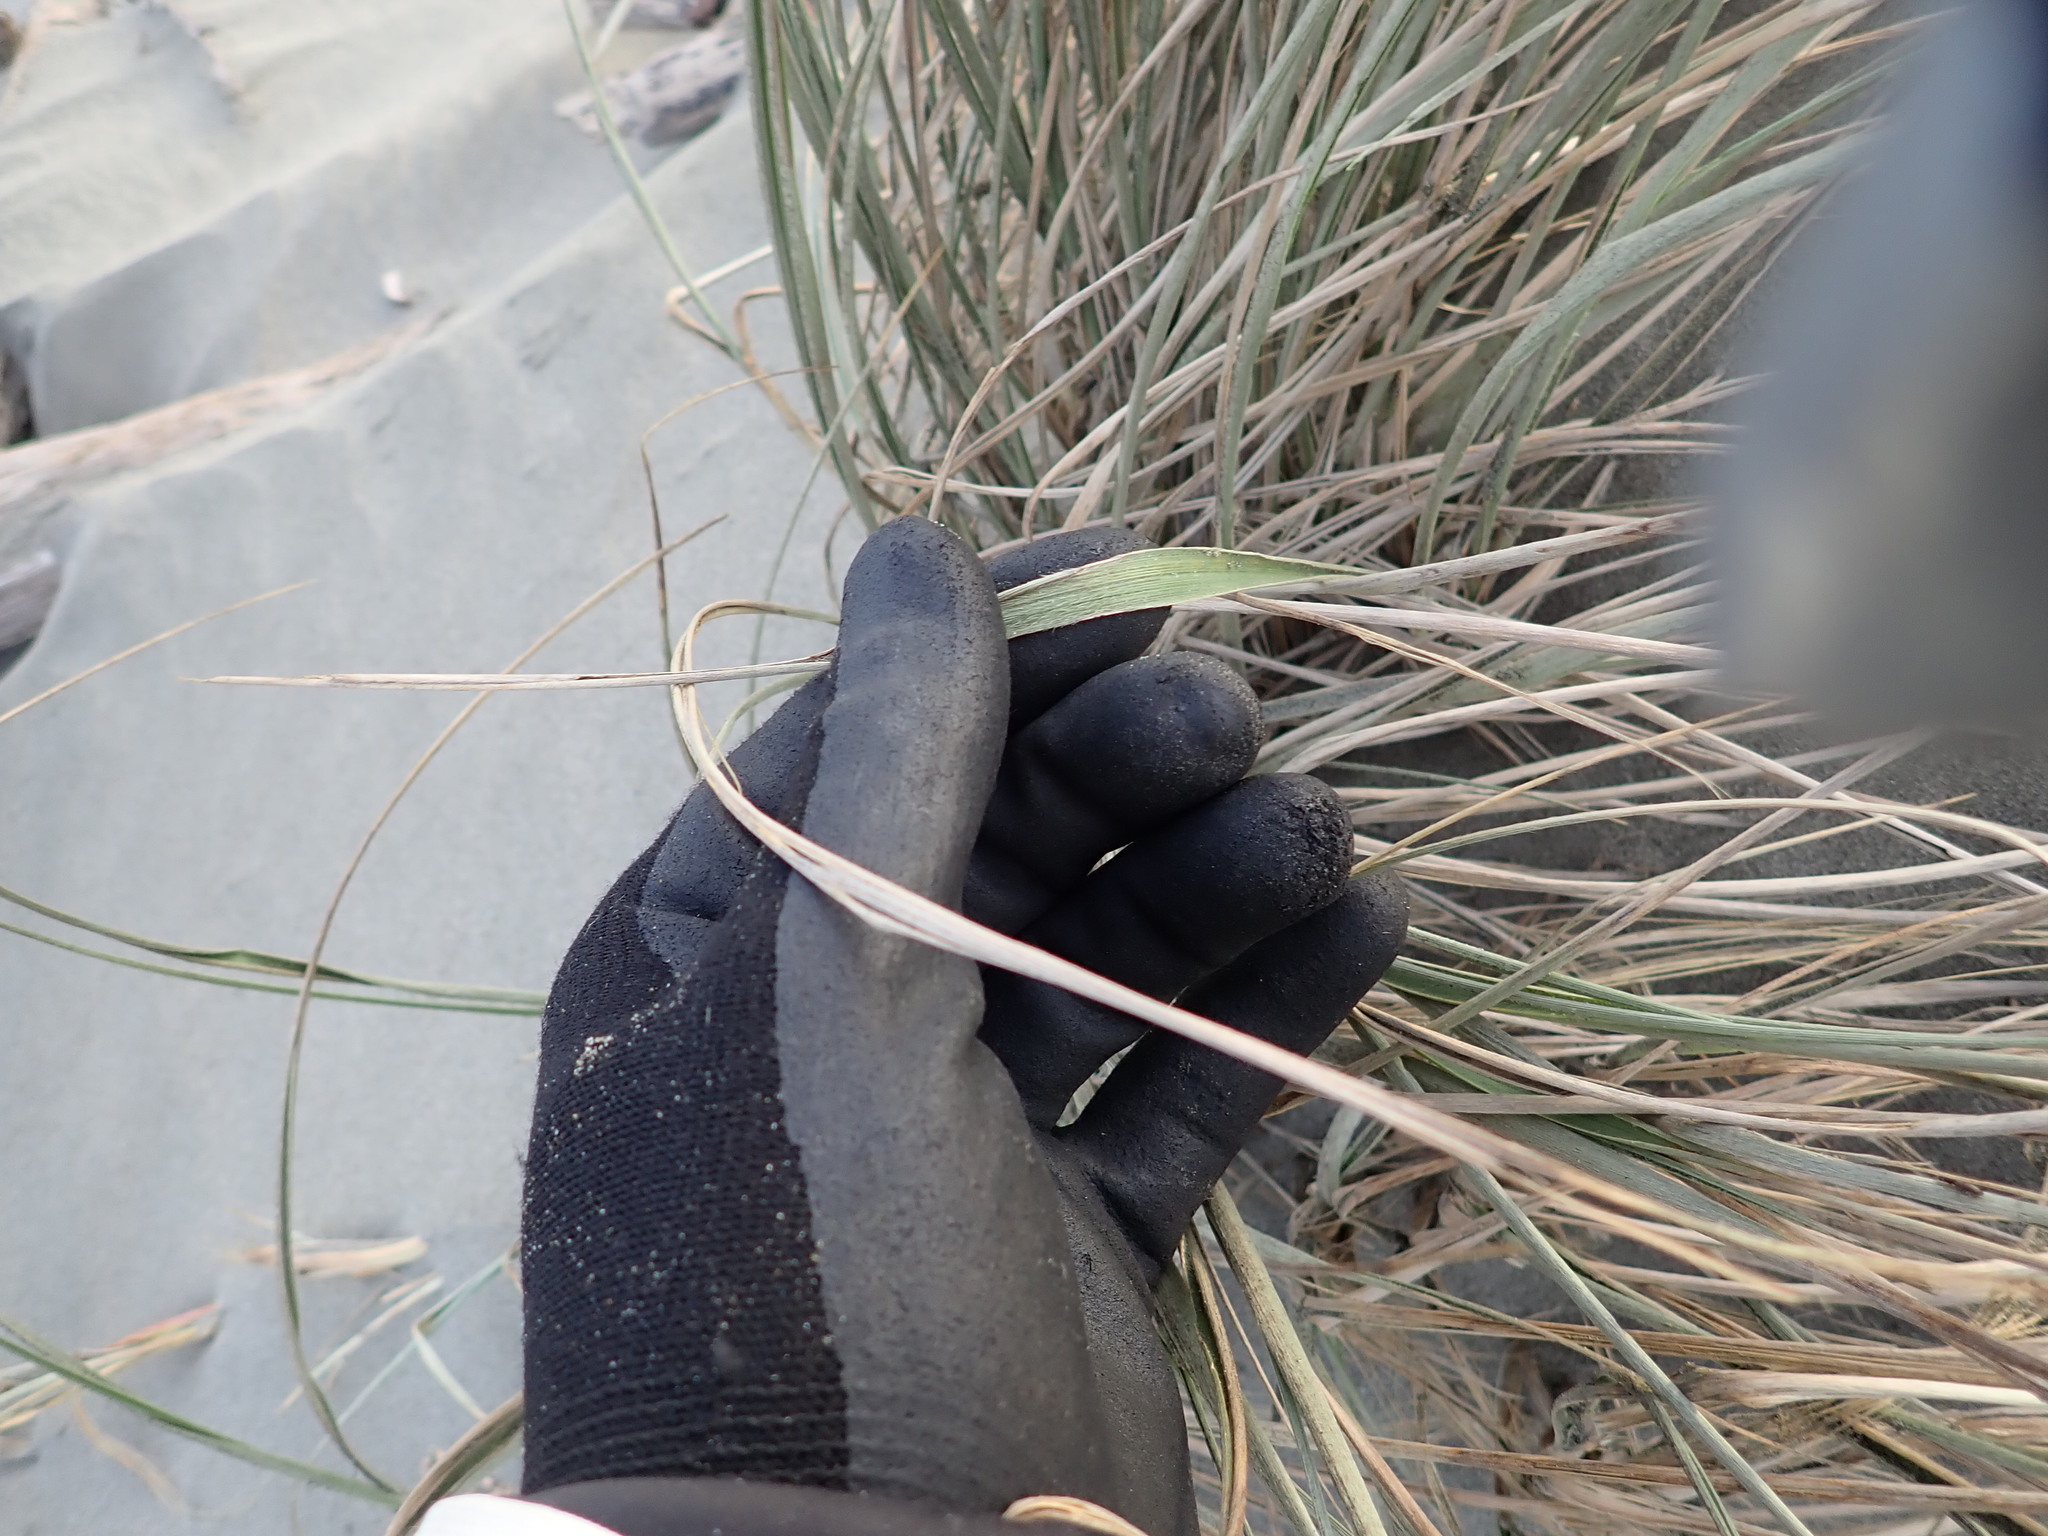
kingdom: Plantae
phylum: Tracheophyta
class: Liliopsida
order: Poales
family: Poaceae
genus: Spinifex
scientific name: Spinifex sericeus
